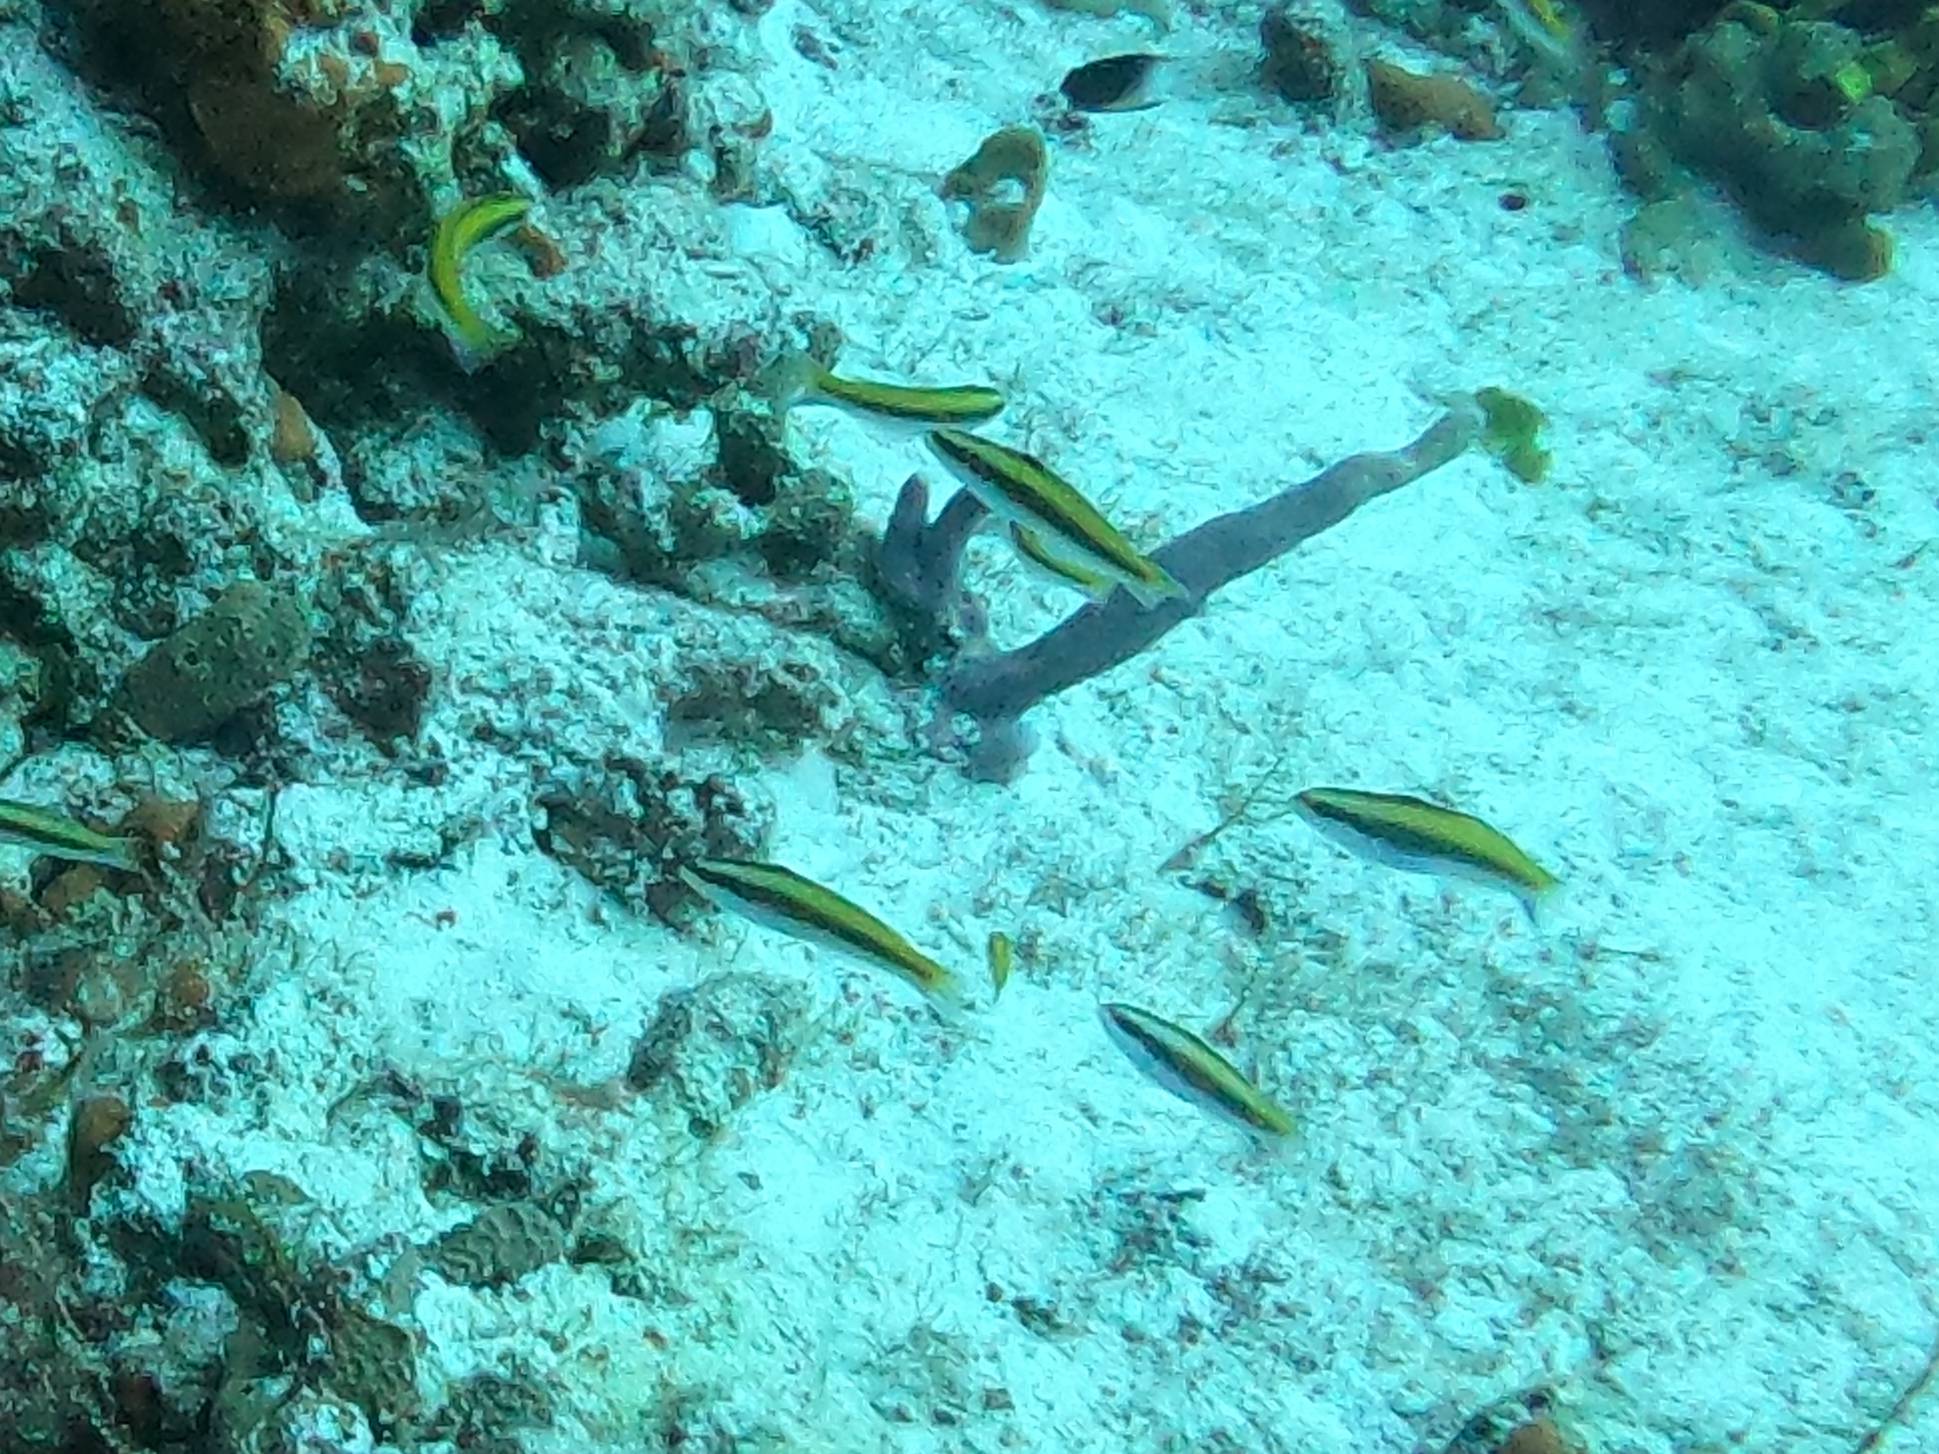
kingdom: Animalia
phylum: Chordata
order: Perciformes
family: Labridae
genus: Thalassoma
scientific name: Thalassoma bifasciatum
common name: Bluehead wrasse
